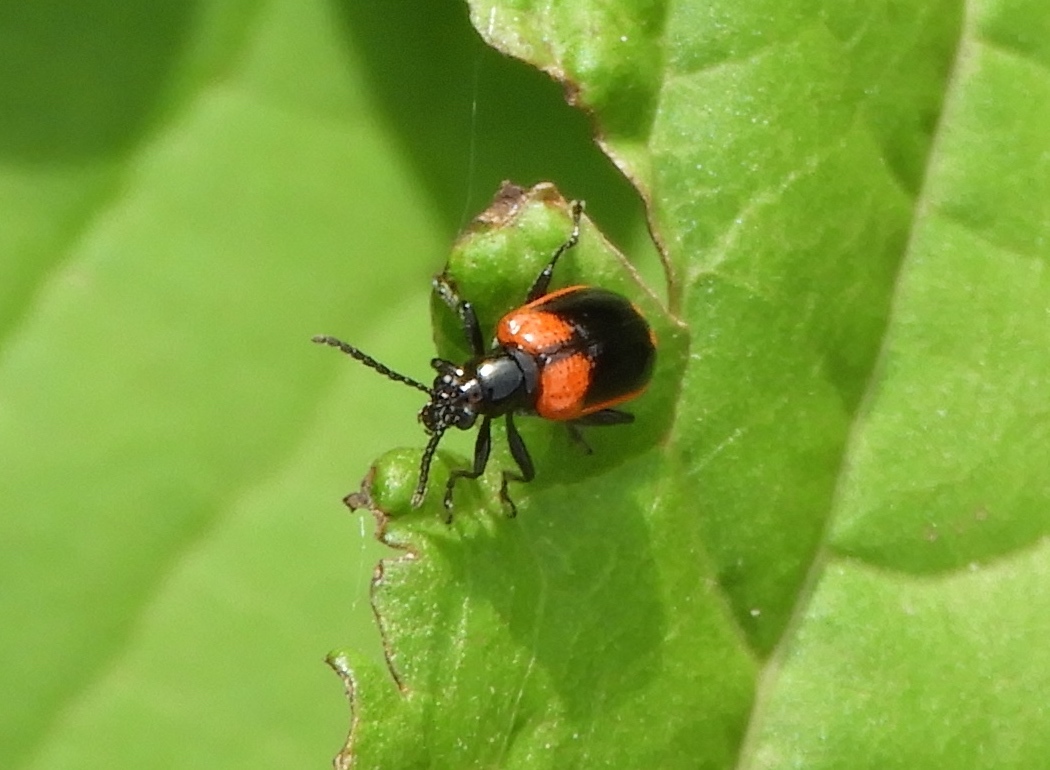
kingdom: Animalia
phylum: Arthropoda
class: Insecta
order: Coleoptera
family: Chrysomelidae
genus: Lema
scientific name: Lema confusa
